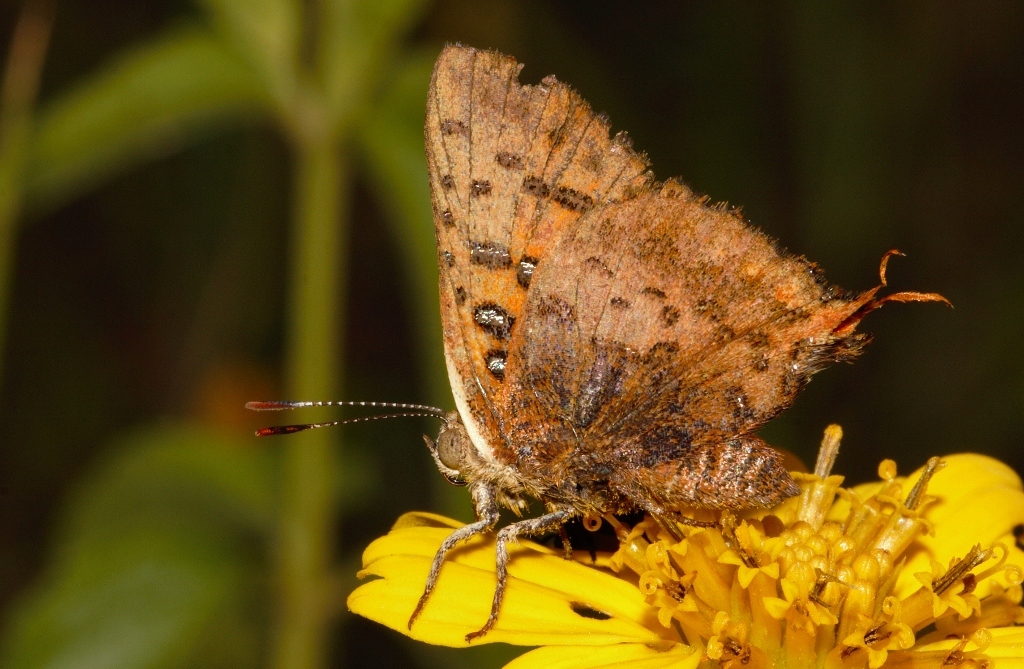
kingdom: Animalia
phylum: Arthropoda
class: Insecta
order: Lepidoptera
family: Lycaenidae
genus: Axiocerses
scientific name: Axiocerses perion
